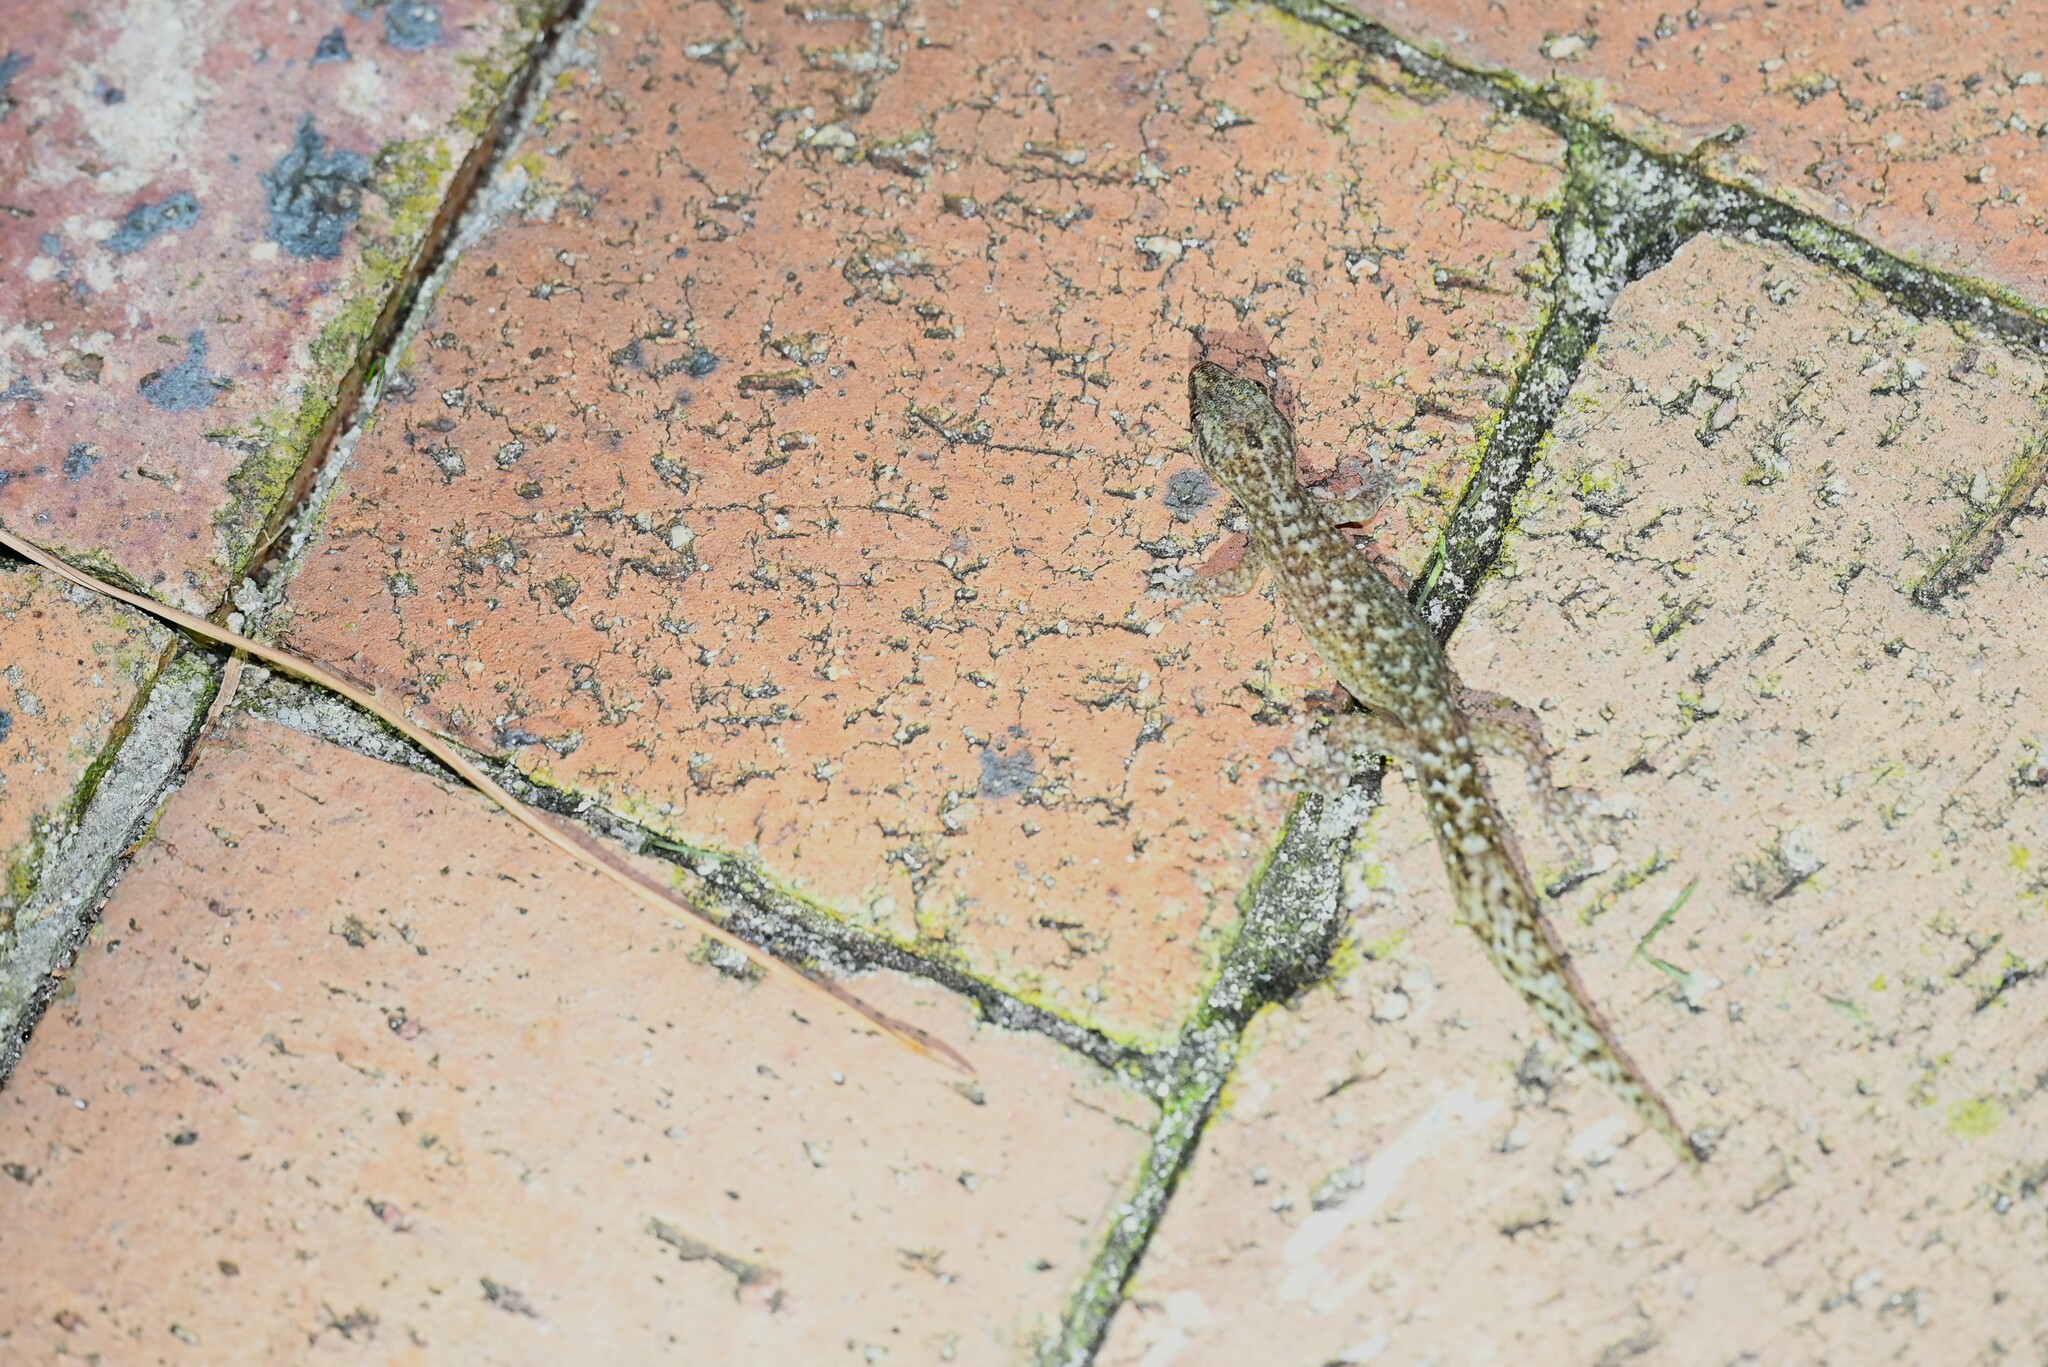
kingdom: Animalia
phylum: Chordata
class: Squamata
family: Gekkonidae
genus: Afrogecko
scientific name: Afrogecko porphyreus
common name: Marbled leaf-toed gecko
